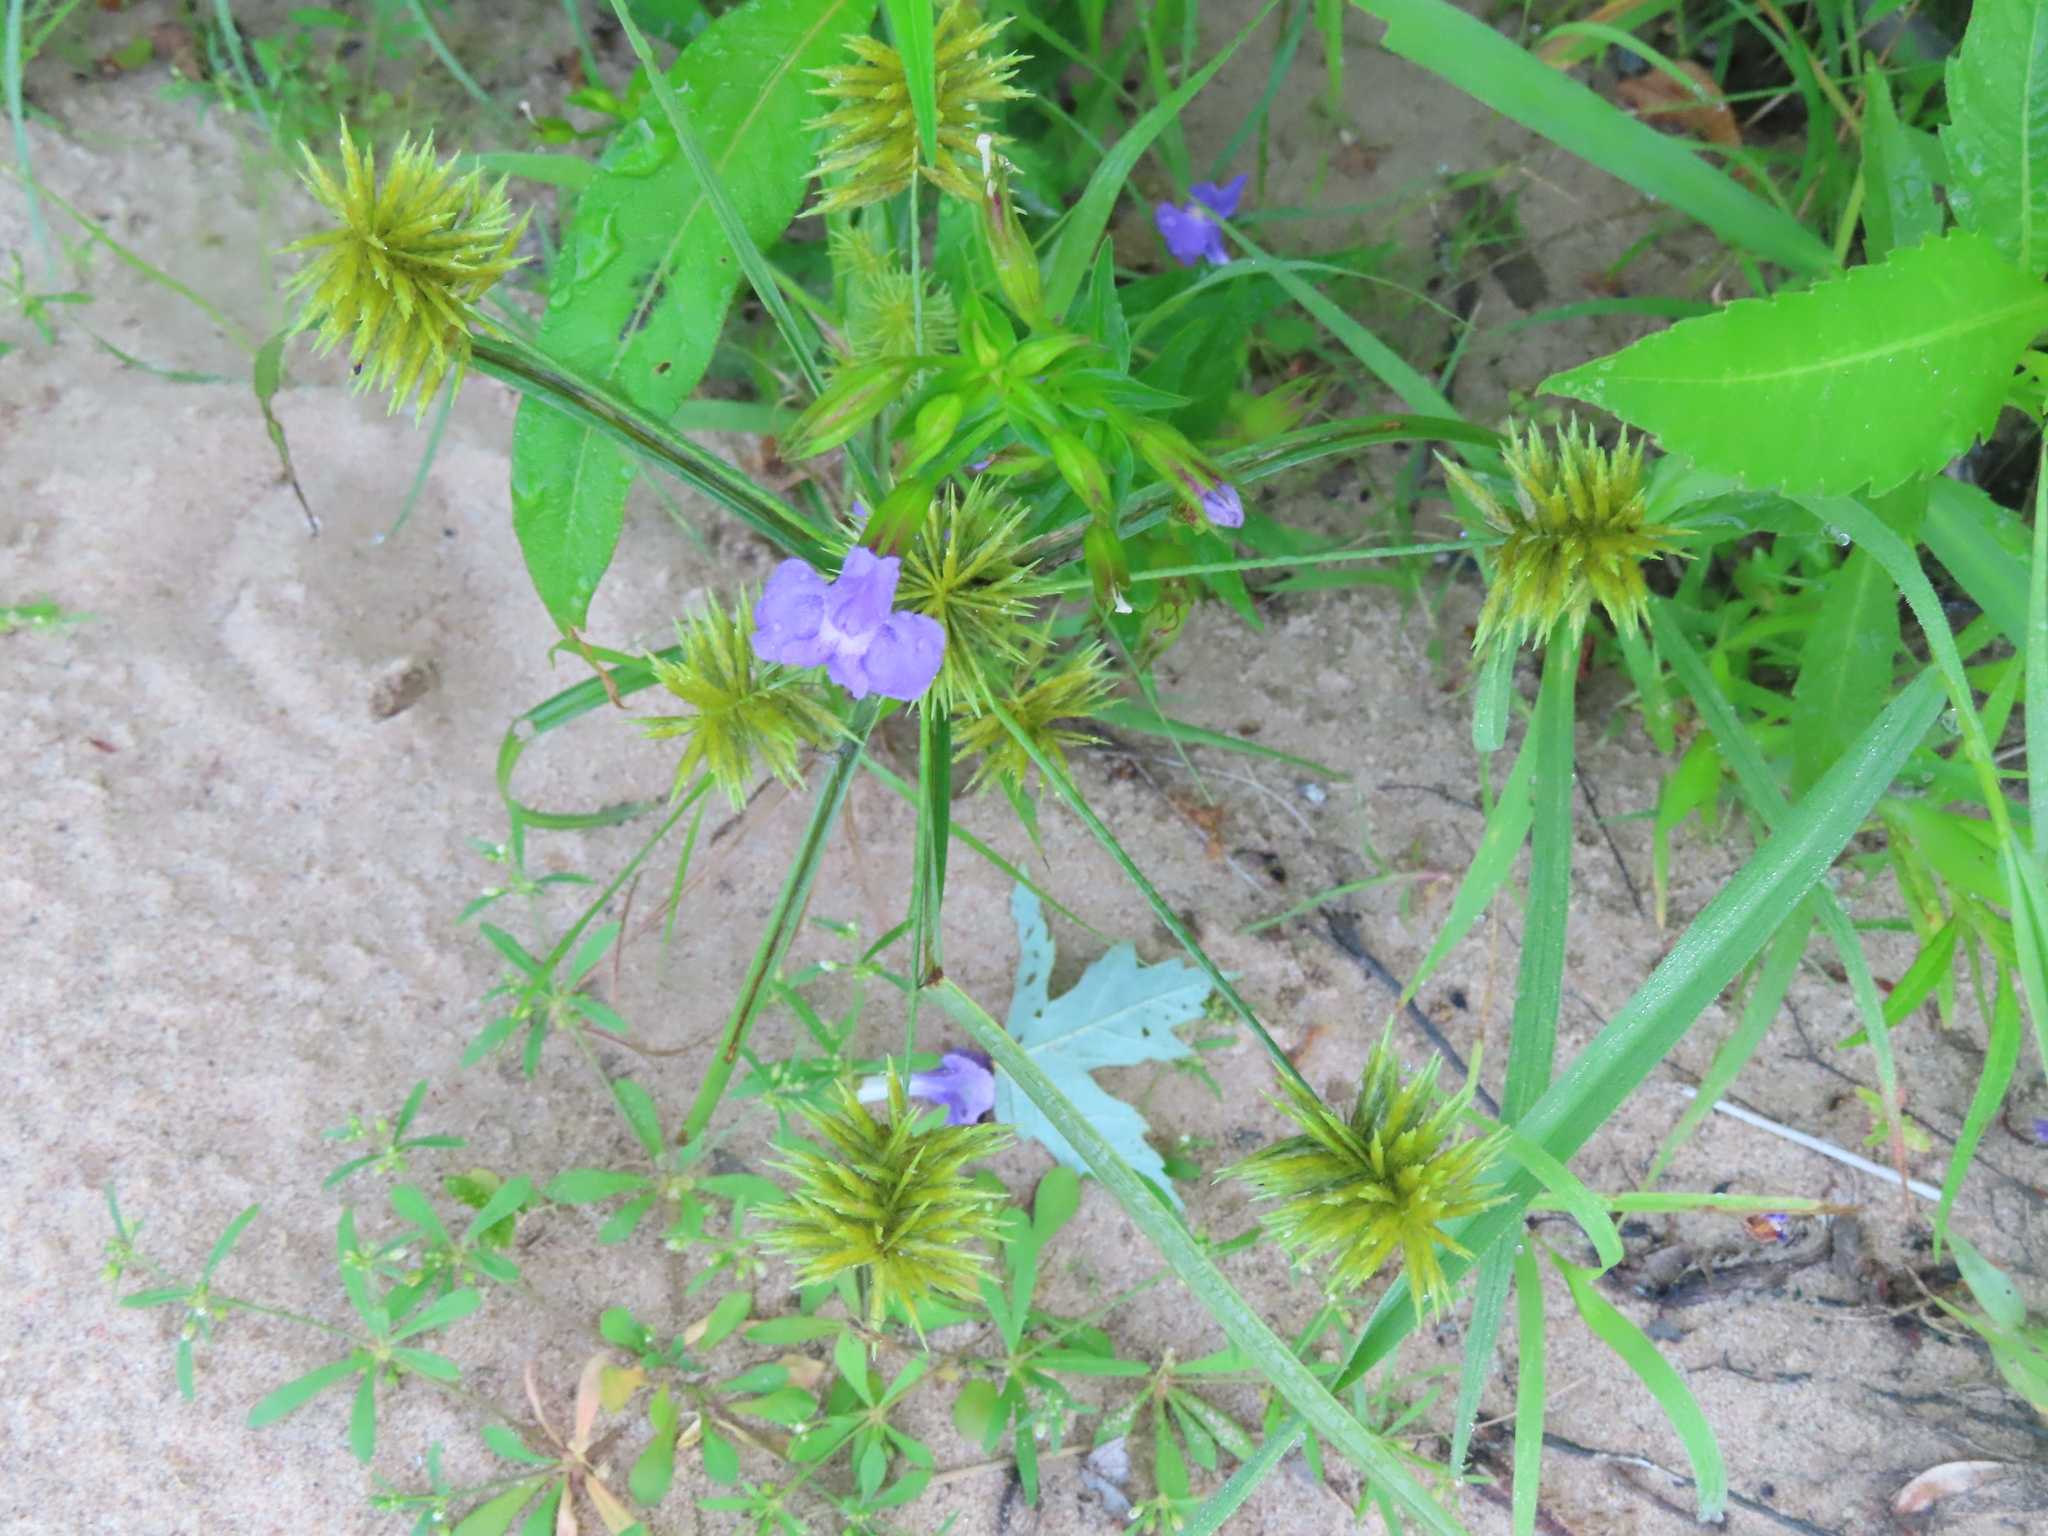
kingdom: Plantae
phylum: Tracheophyta
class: Liliopsida
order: Poales
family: Cyperaceae
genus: Cyperus
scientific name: Cyperus strigosus
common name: False nutsedge
